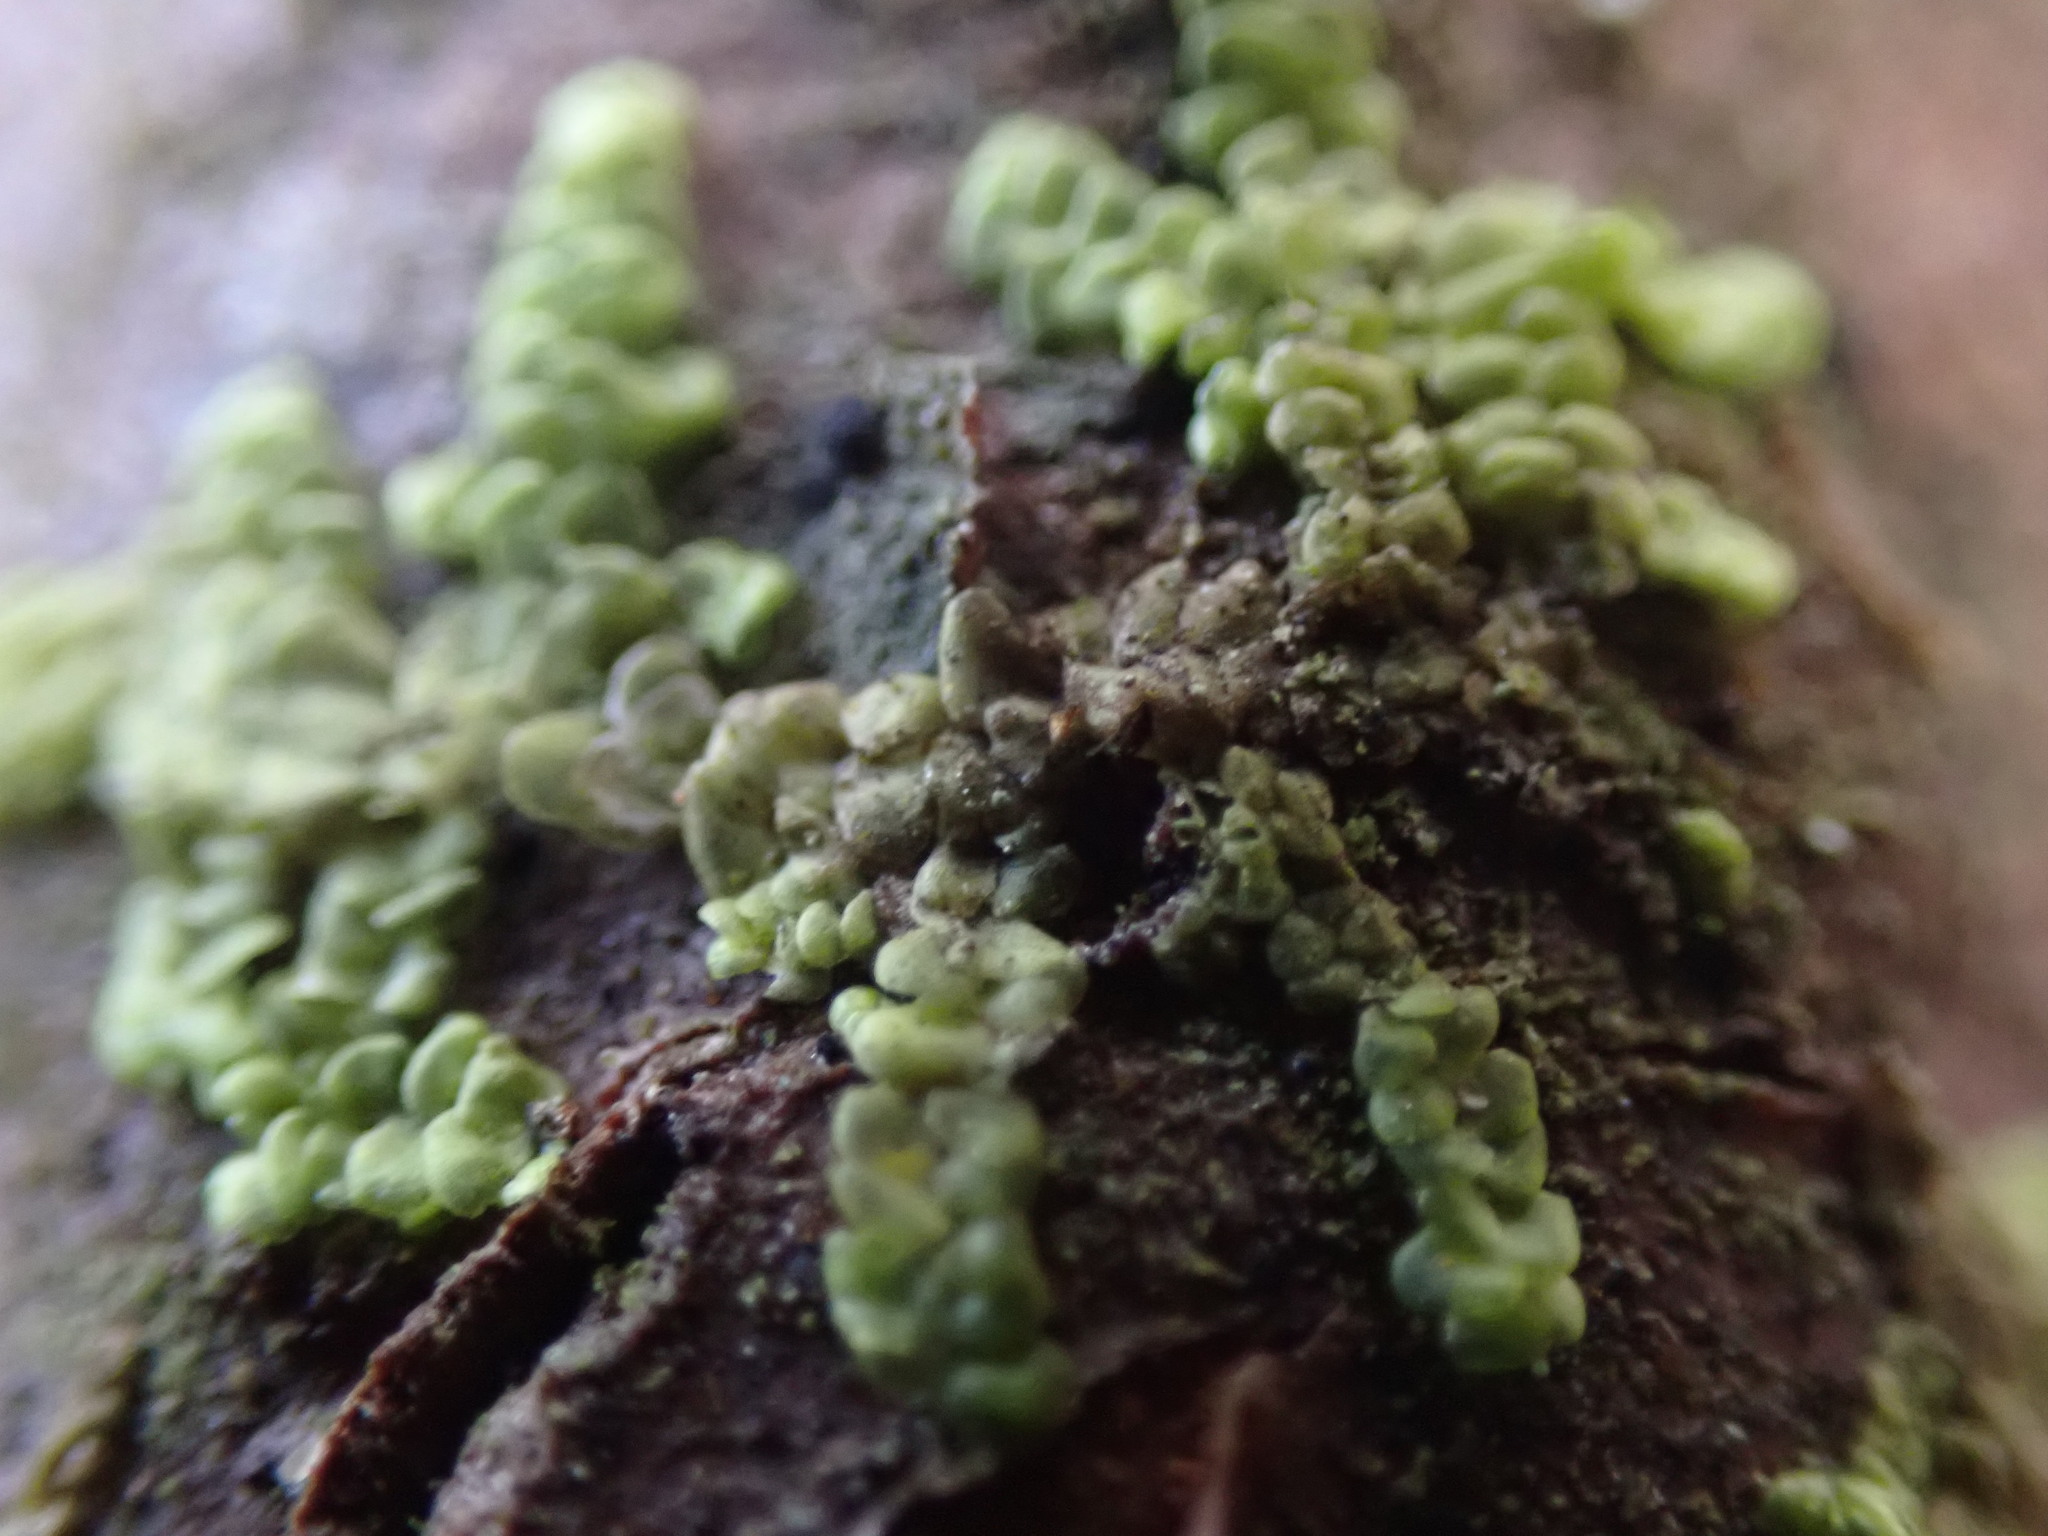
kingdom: Plantae
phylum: Marchantiophyta
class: Jungermanniopsida
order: Porellales
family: Radulaceae
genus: Radula
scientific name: Radula complanata
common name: Flat-leaved scalewort
